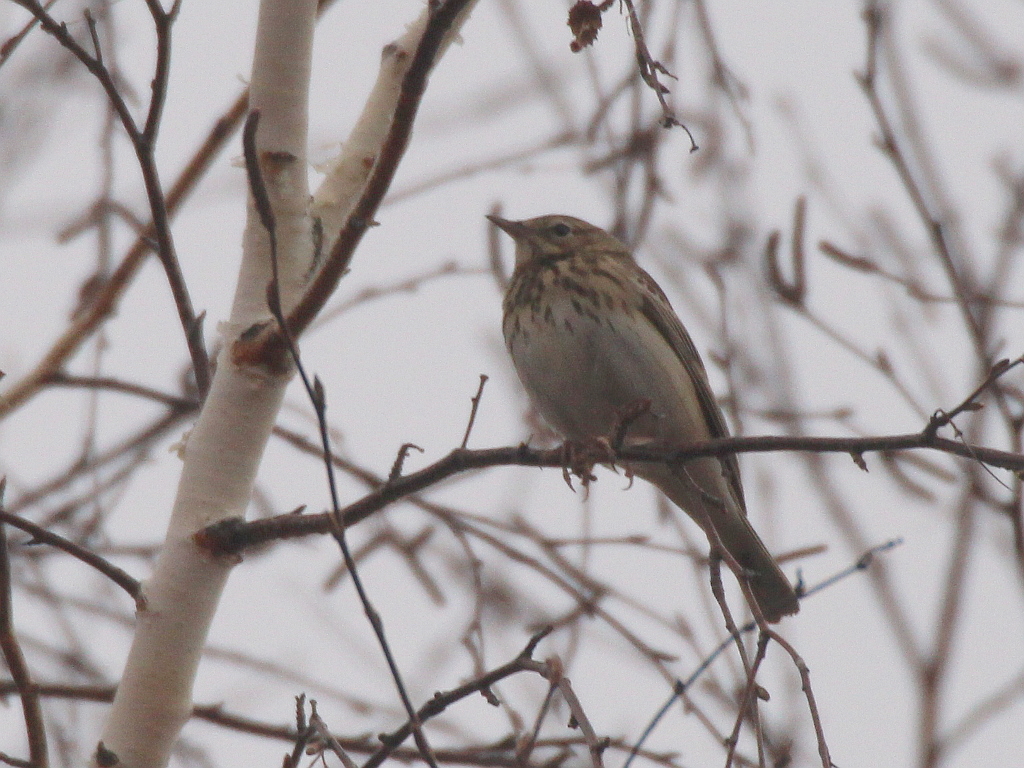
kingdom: Animalia
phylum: Chordata
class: Aves
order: Passeriformes
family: Motacillidae
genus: Anthus
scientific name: Anthus trivialis
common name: Tree pipit
